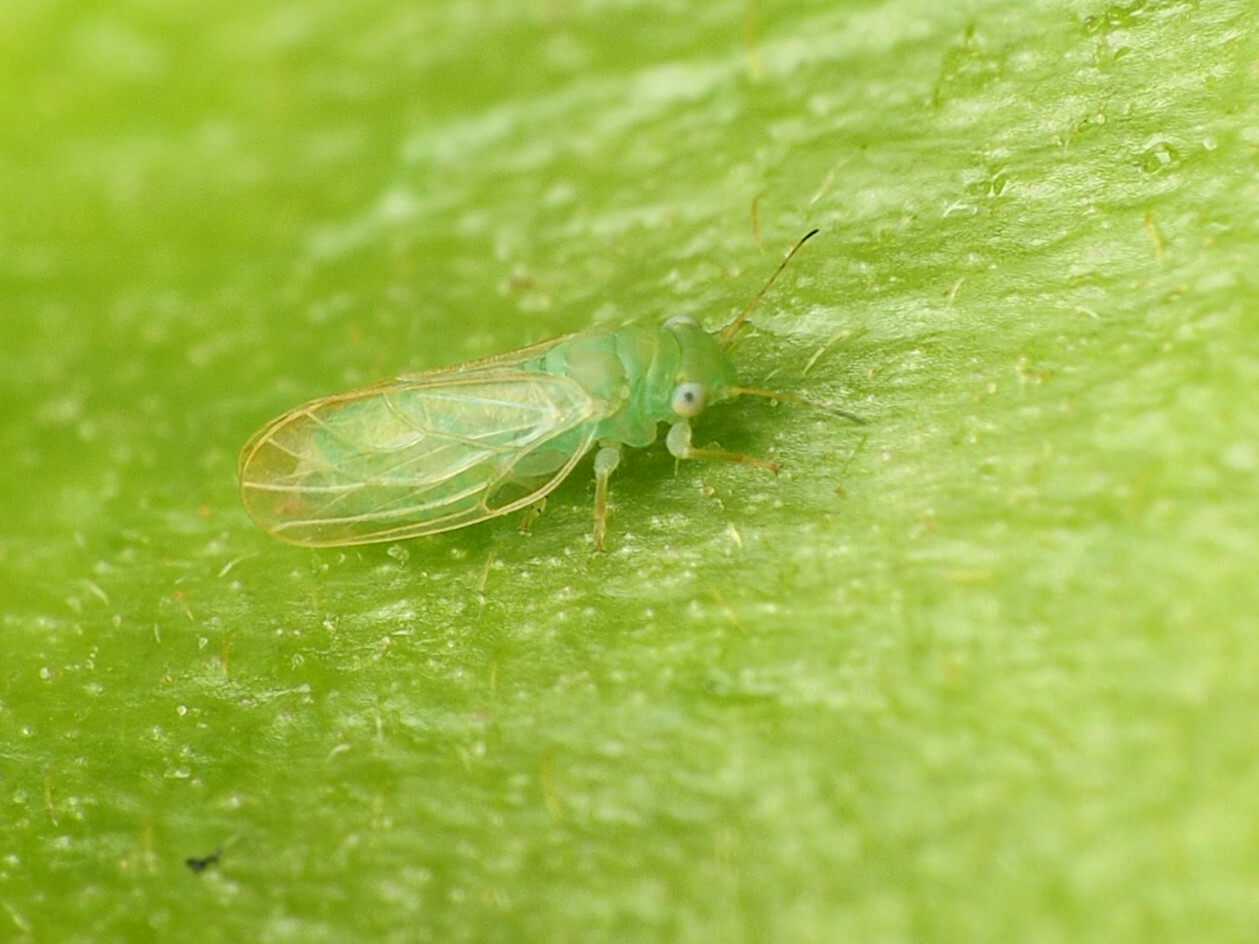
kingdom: Animalia
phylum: Arthropoda
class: Insecta
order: Hemiptera
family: Psyllidae
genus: Acizzia
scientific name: Acizzia jamatonica
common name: Mimosa psyllid
